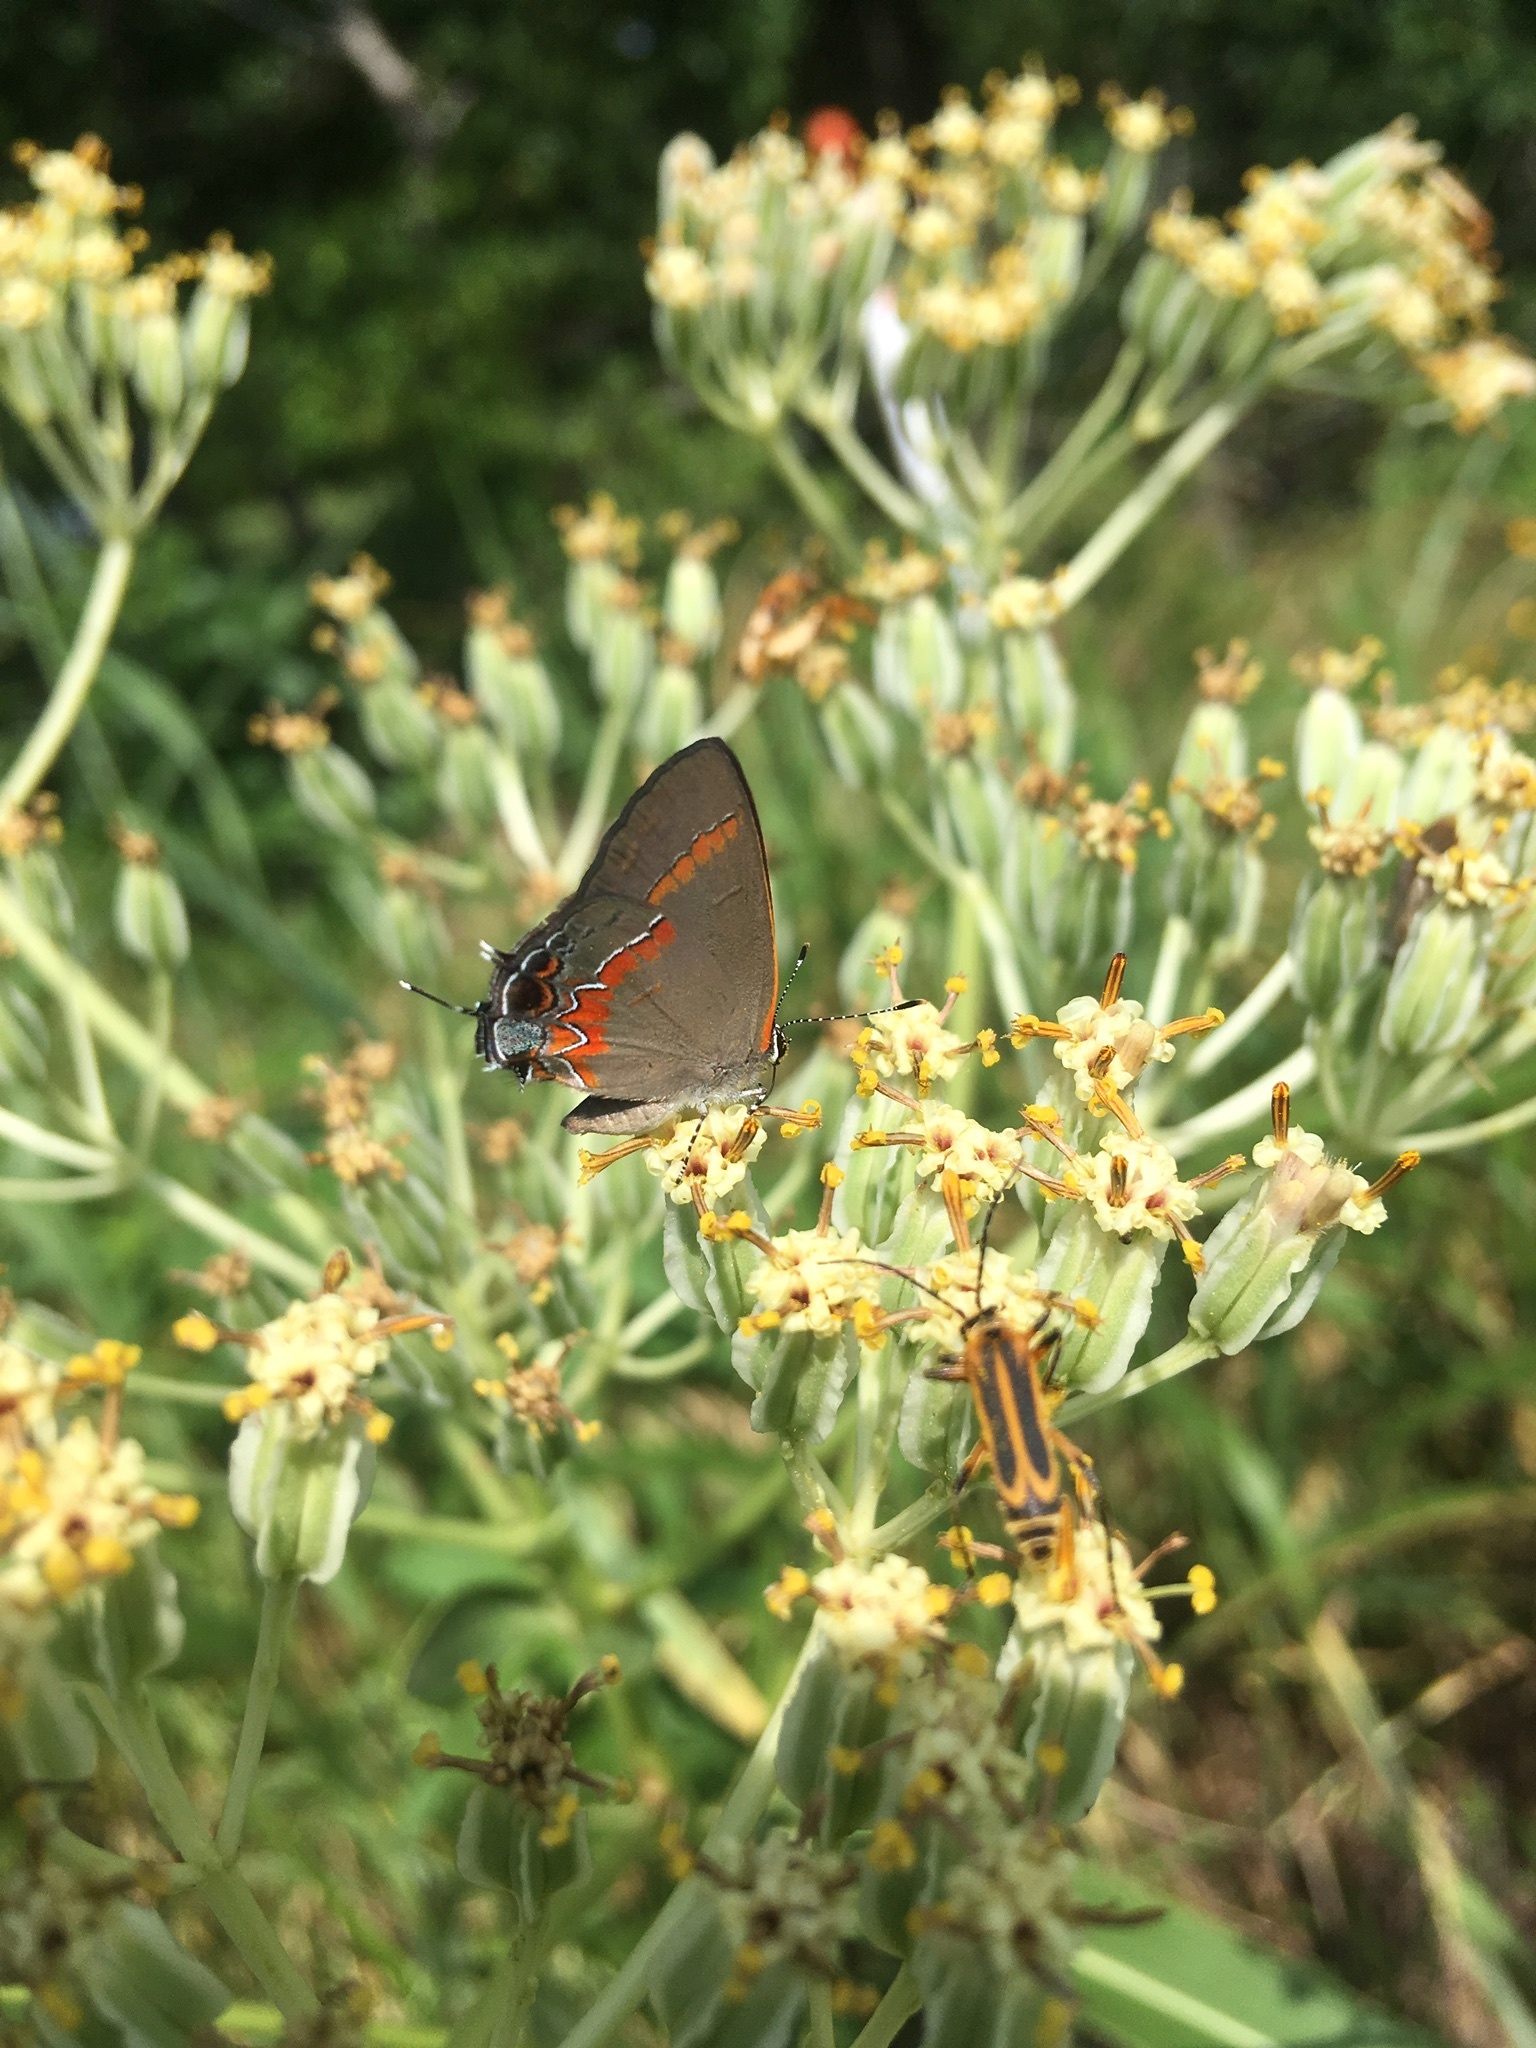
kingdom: Animalia
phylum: Arthropoda
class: Insecta
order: Lepidoptera
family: Lycaenidae
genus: Calycopis
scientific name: Calycopis cecrops
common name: Red-banded hairstreak
